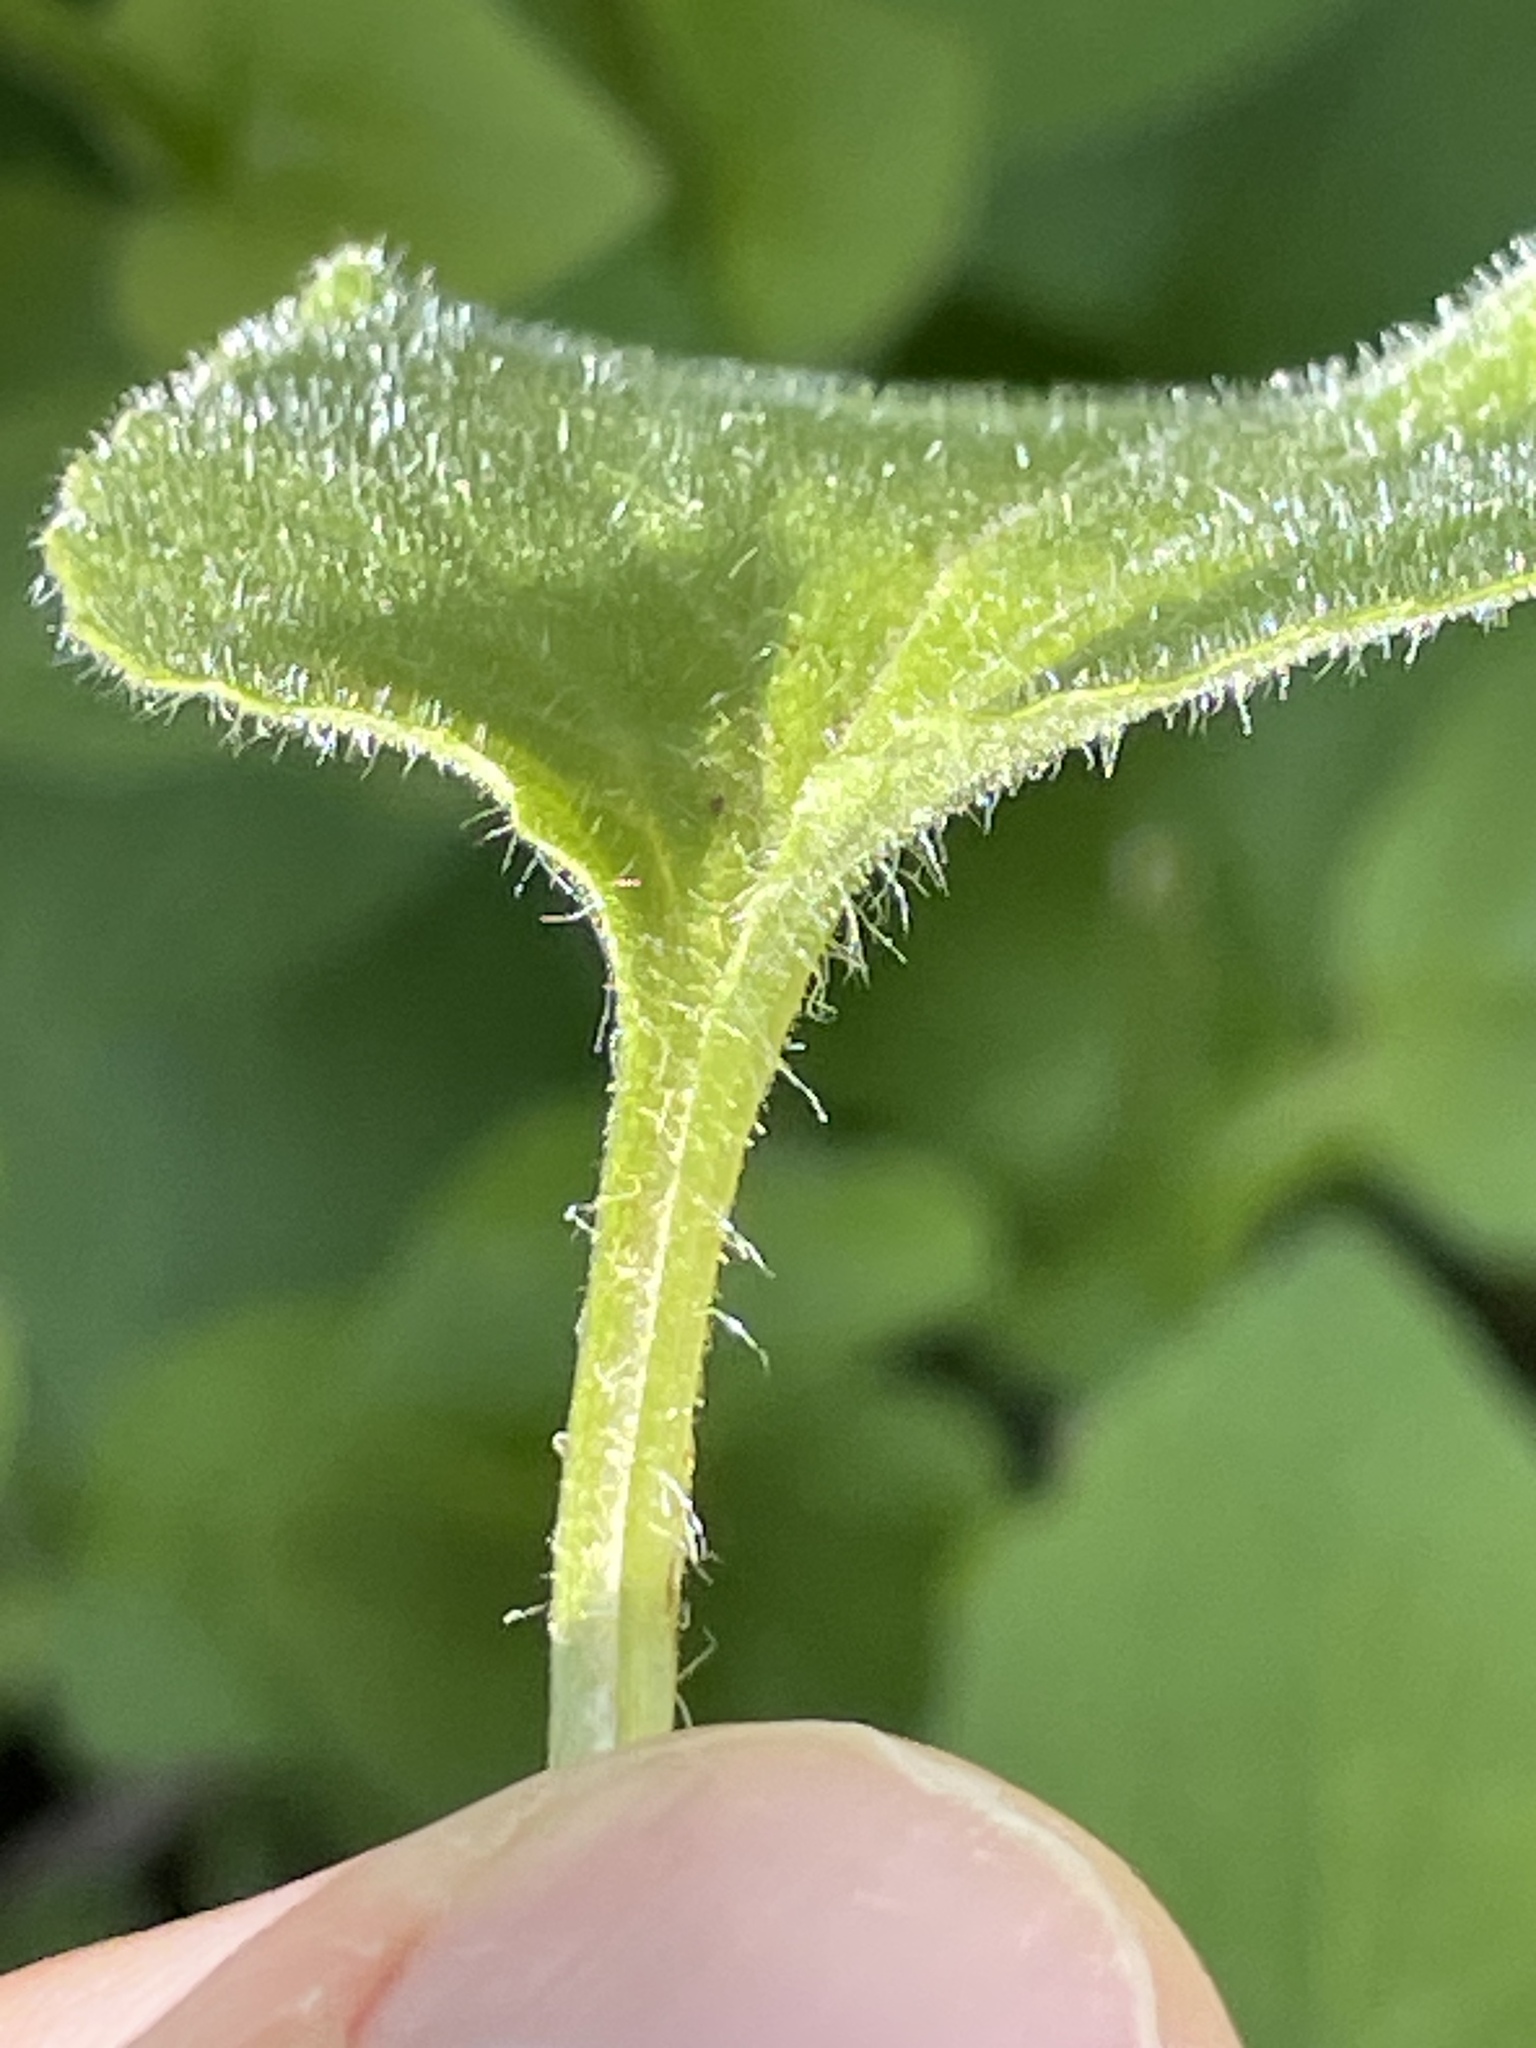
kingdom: Plantae
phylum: Tracheophyta
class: Magnoliopsida
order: Asterales
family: Asteraceae
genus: Doronicum
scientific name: Doronicum willdenowii
